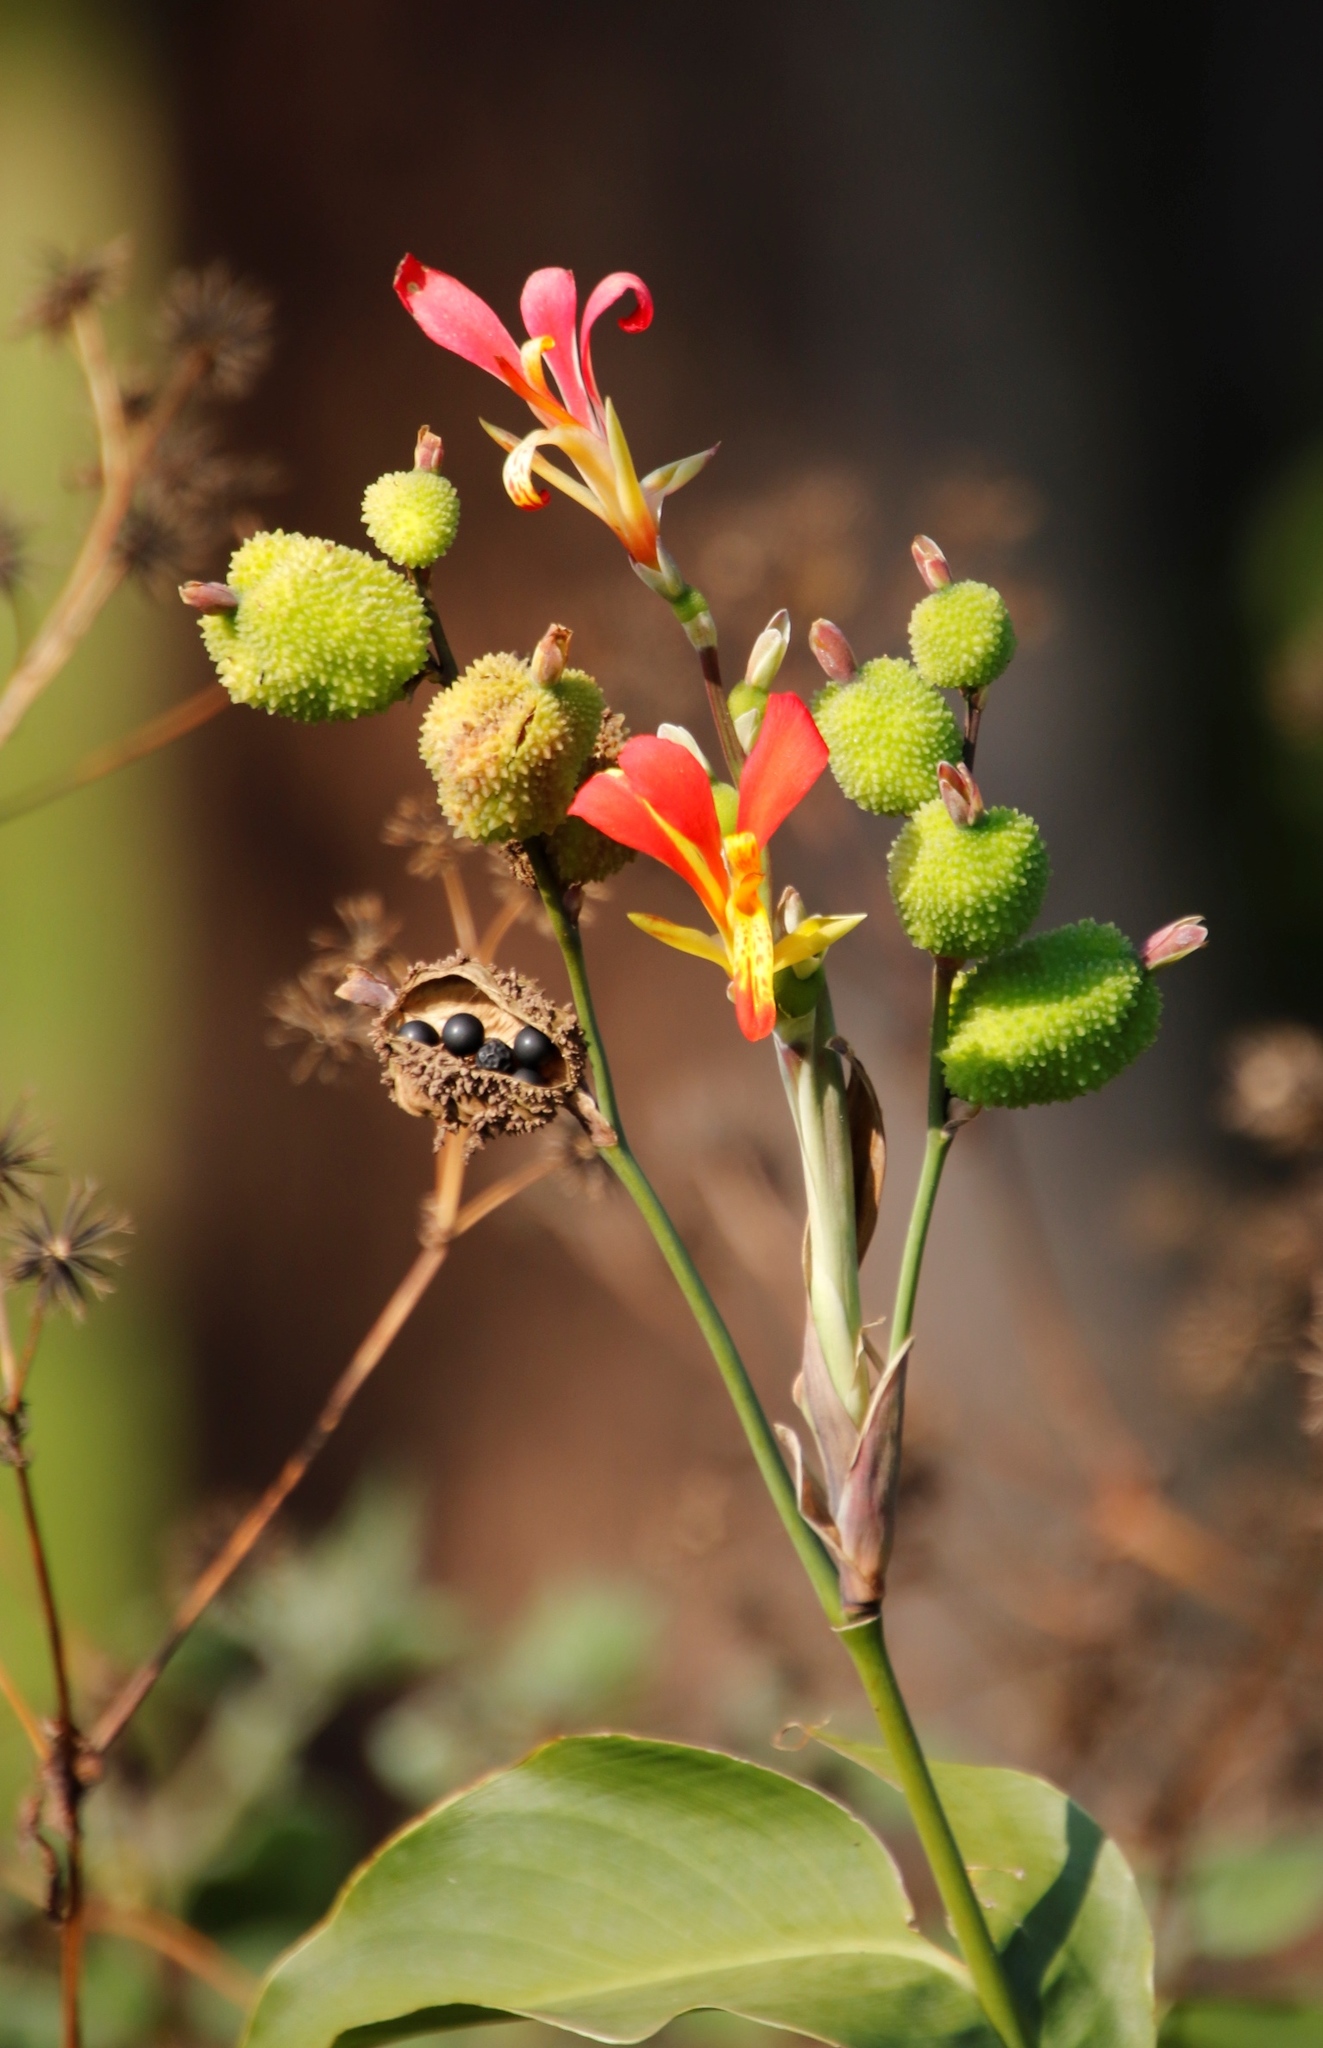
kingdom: Plantae
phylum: Tracheophyta
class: Liliopsida
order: Zingiberales
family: Cannaceae
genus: Canna
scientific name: Canna indica
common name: Indian shot
